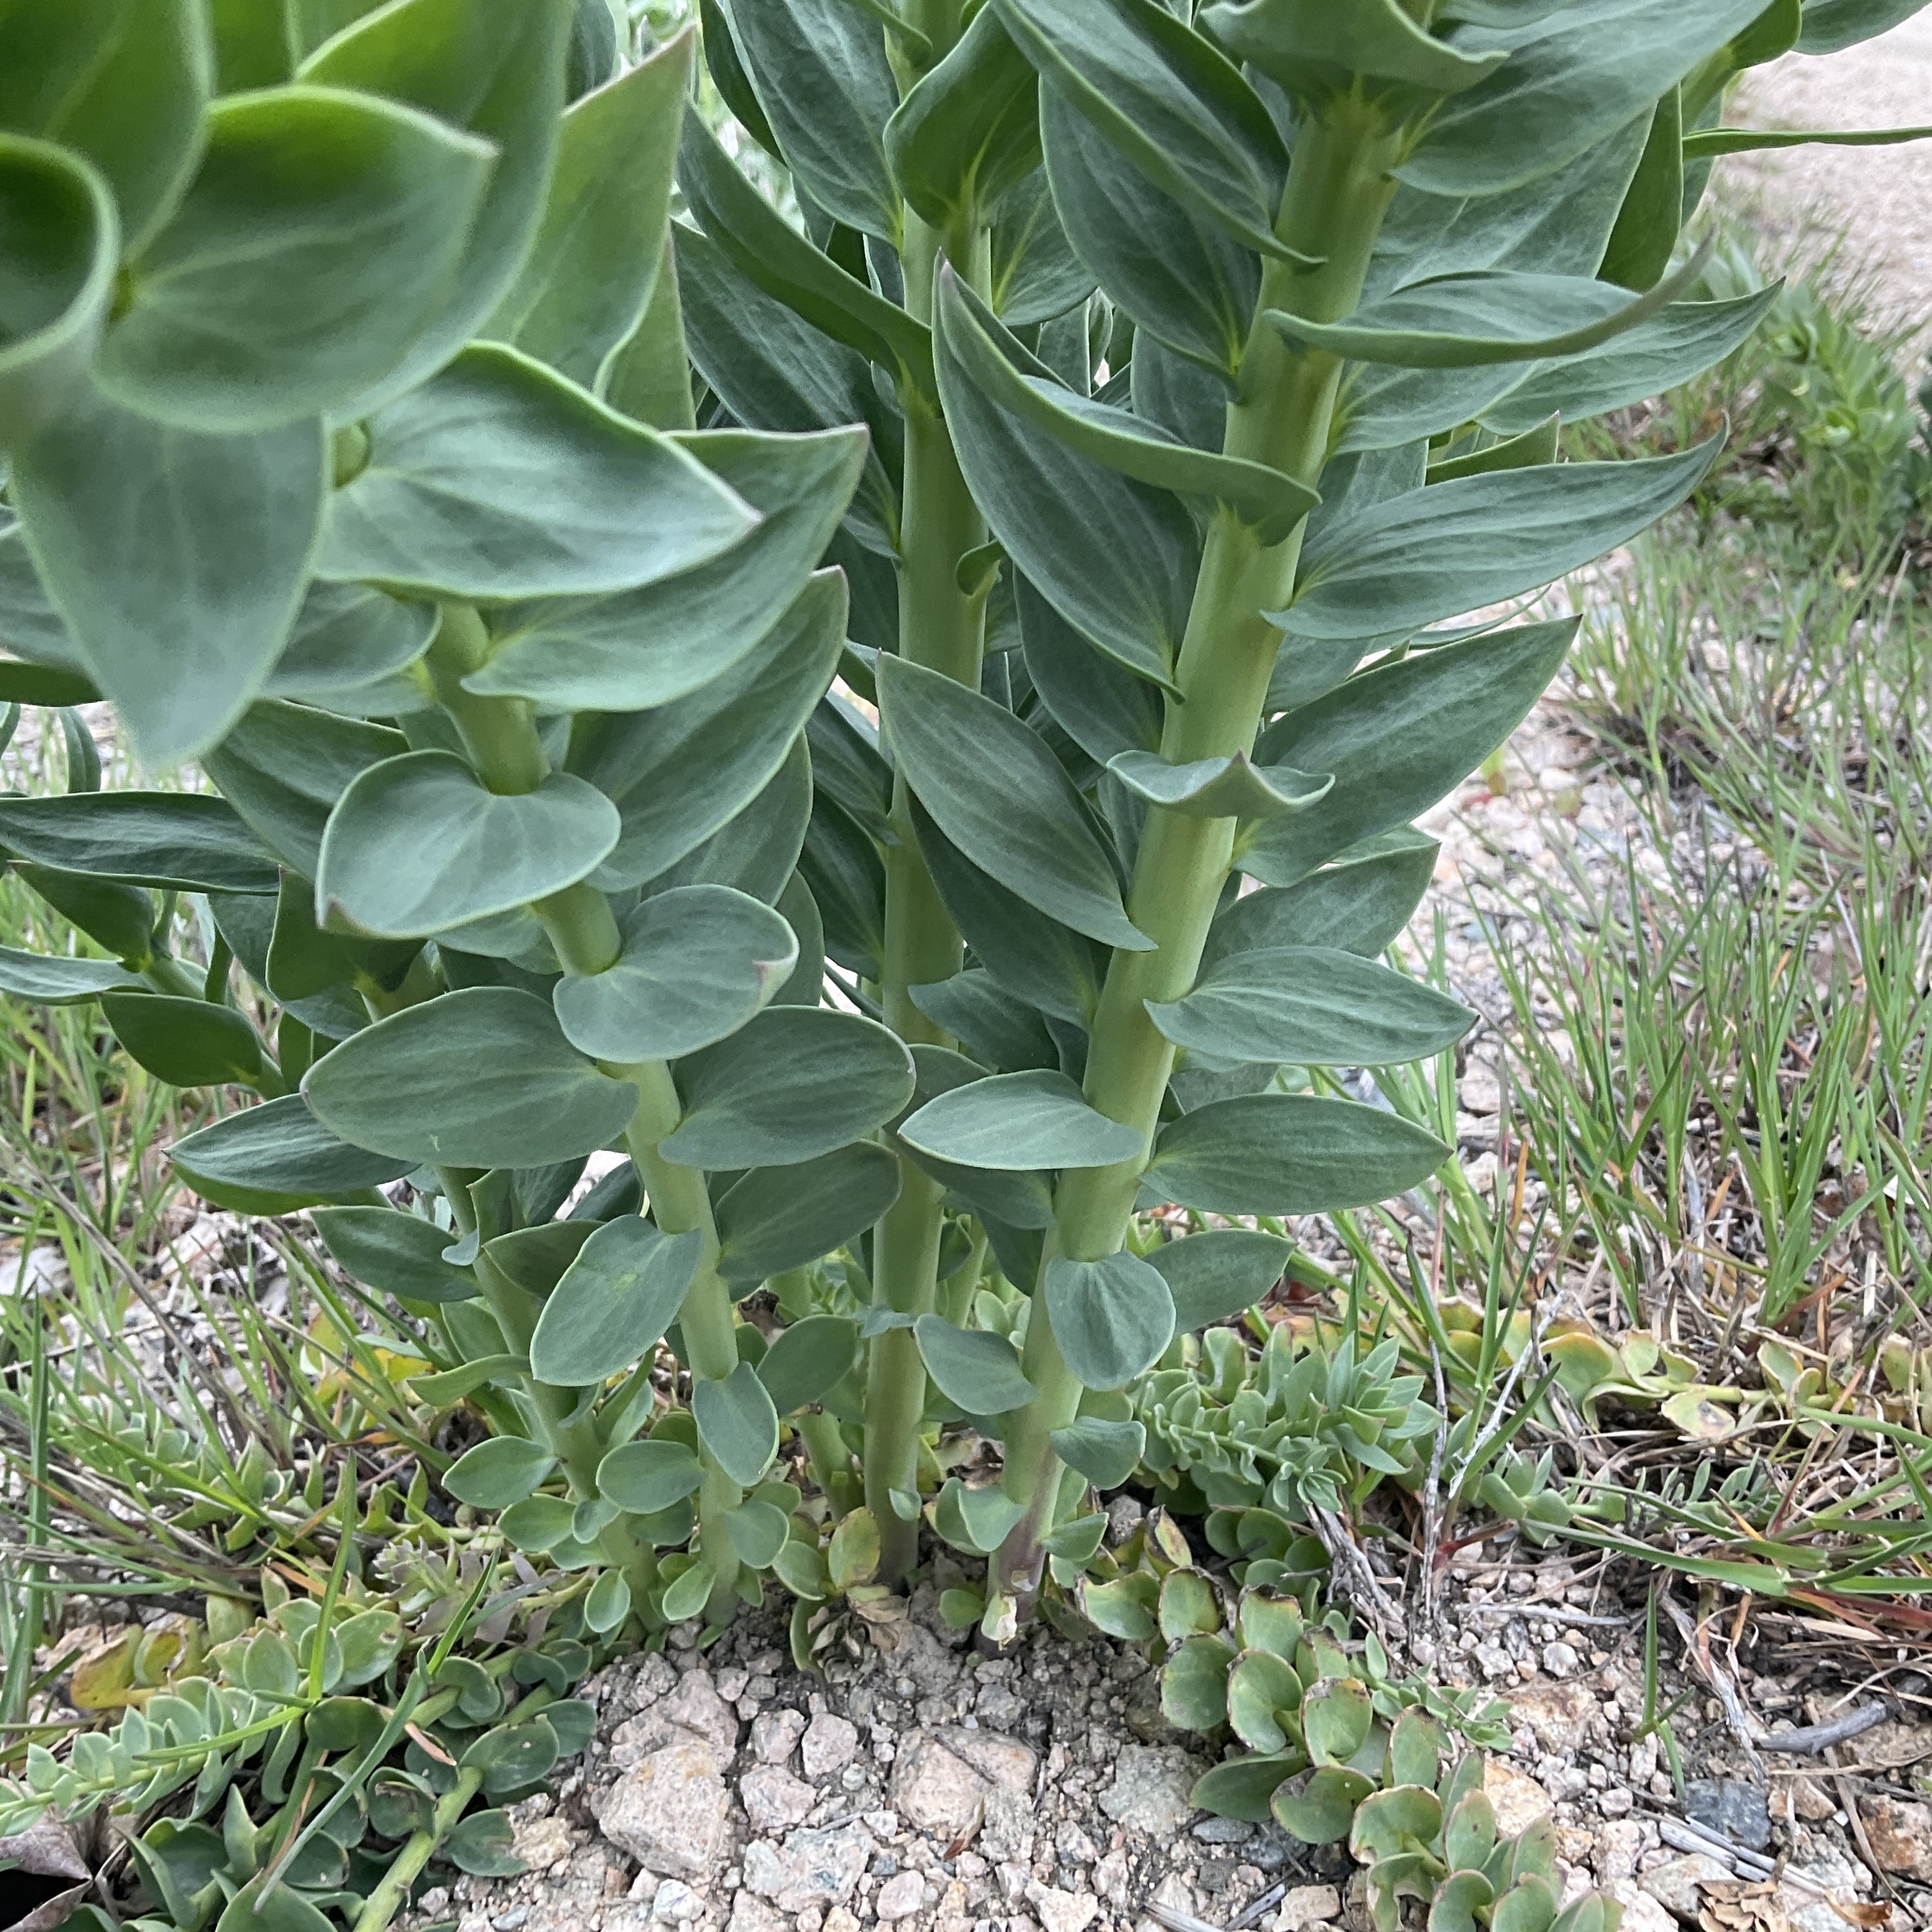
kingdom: Plantae
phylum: Tracheophyta
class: Magnoliopsida
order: Lamiales
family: Plantaginaceae
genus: Linaria
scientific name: Linaria dalmatica
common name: Dalmatian toadflax
